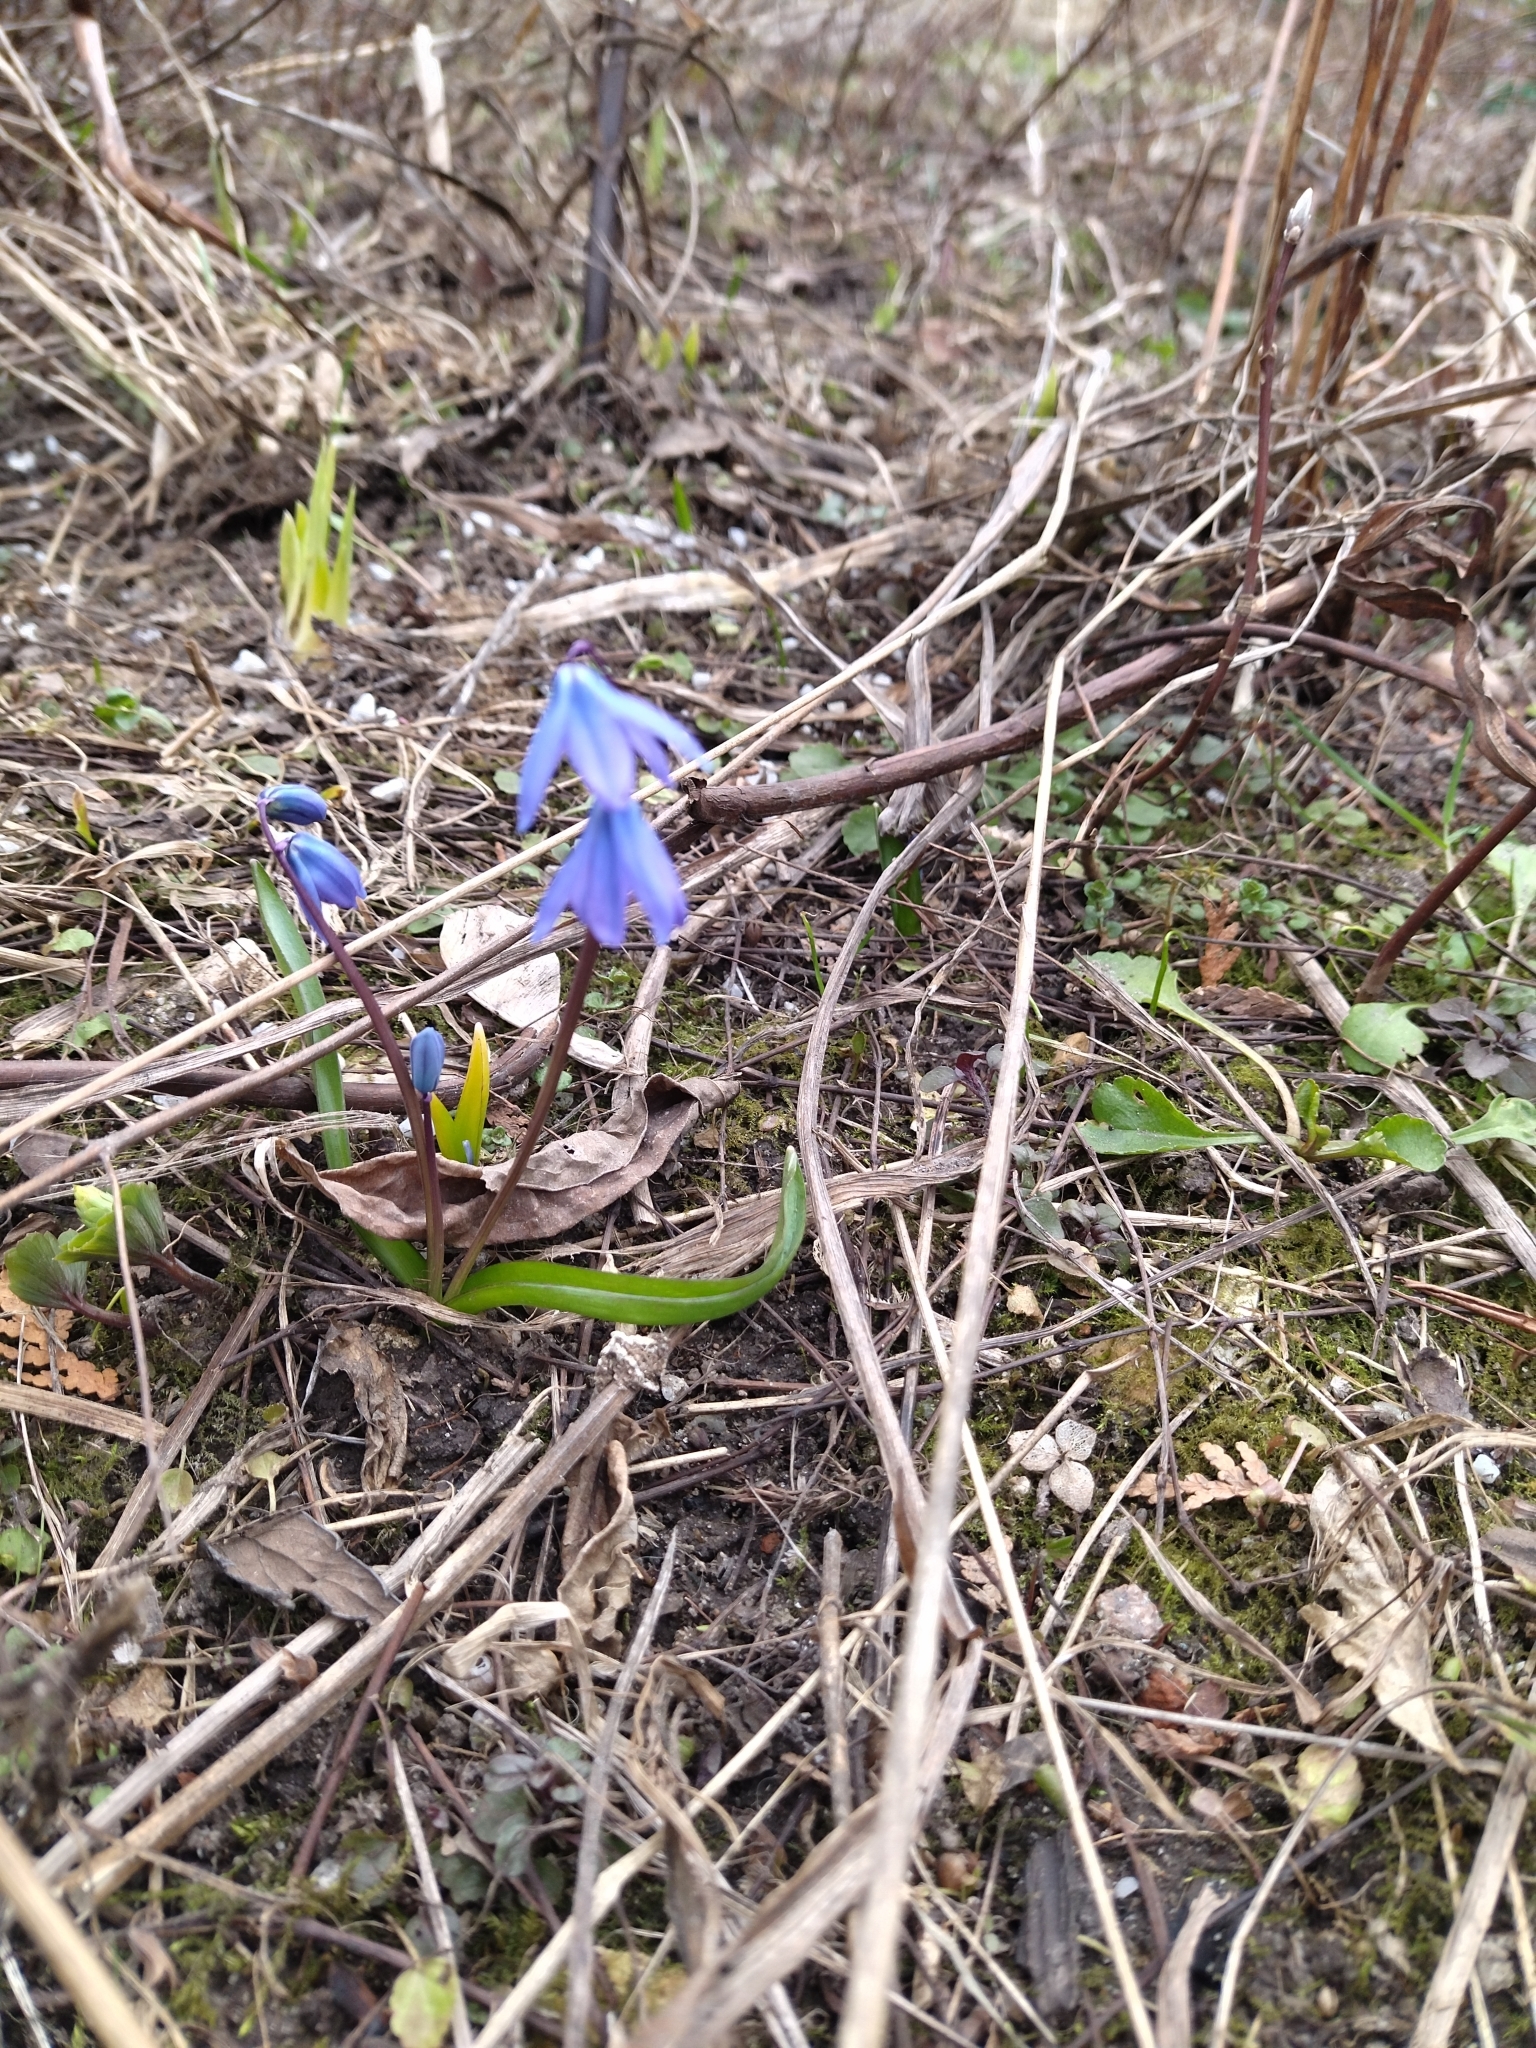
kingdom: Plantae
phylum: Tracheophyta
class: Liliopsida
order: Asparagales
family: Asparagaceae
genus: Scilla
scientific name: Scilla siberica
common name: Siberian squill
